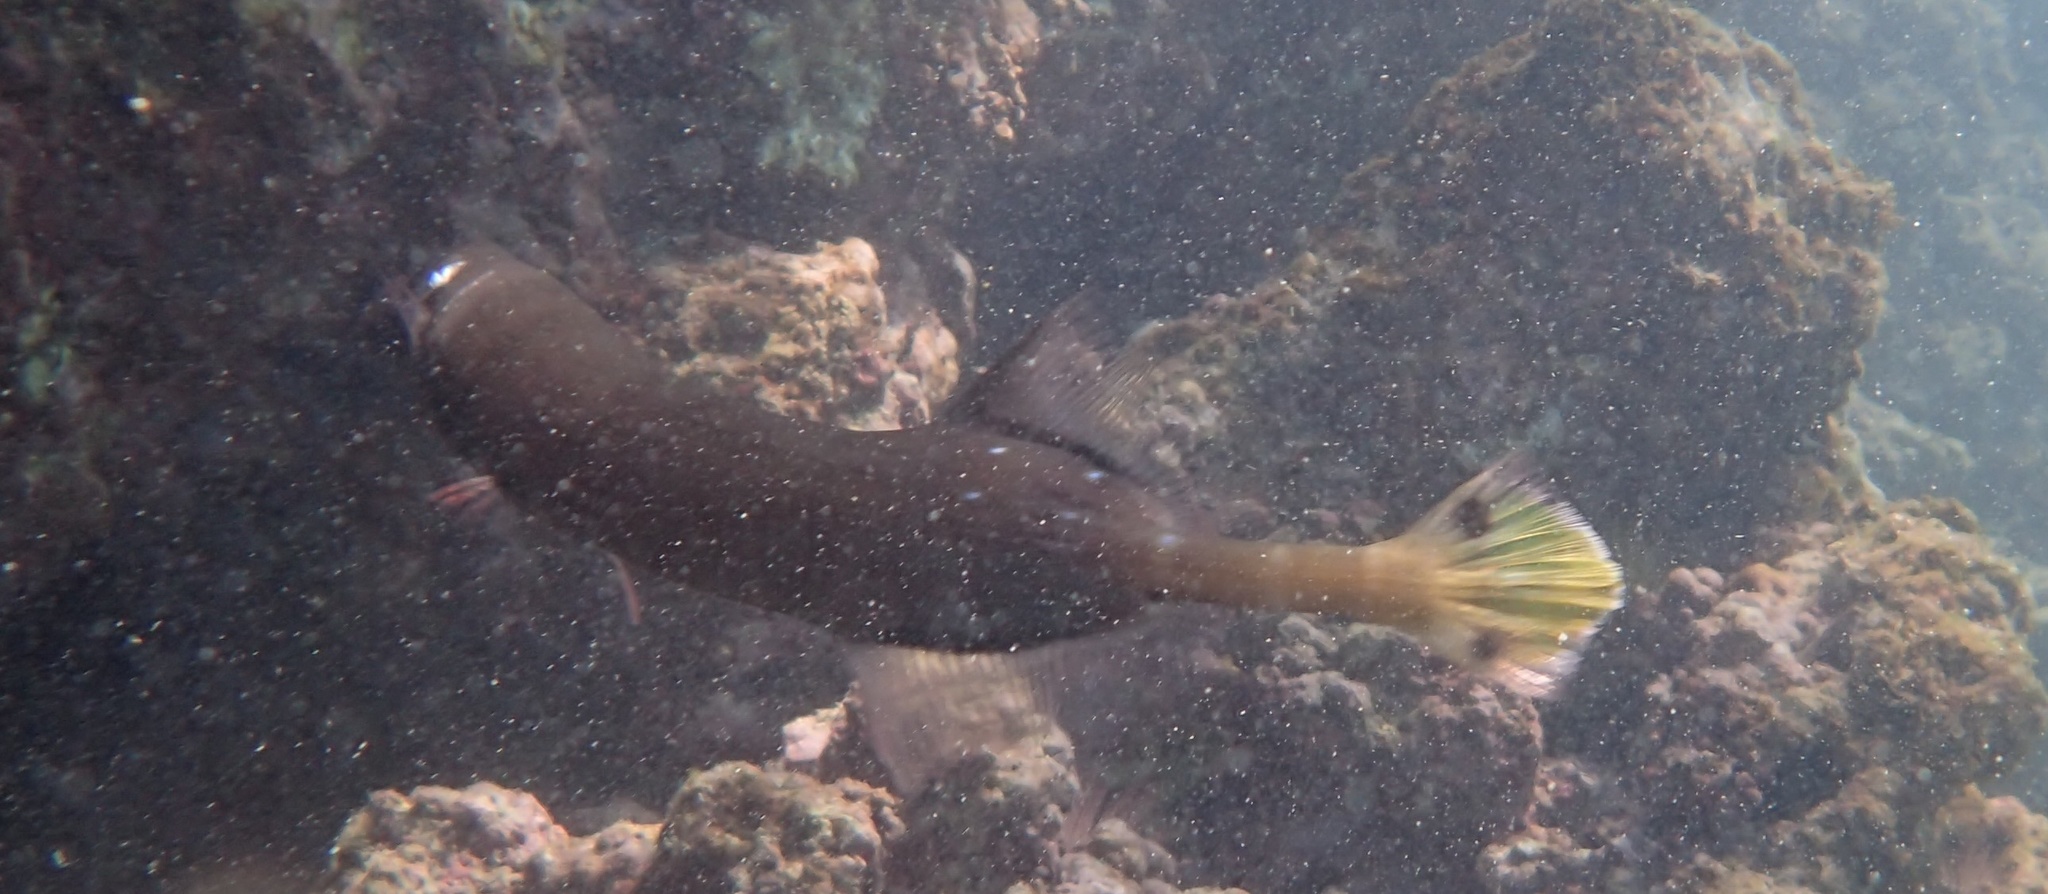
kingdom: Animalia
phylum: Chordata
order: Syngnathiformes
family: Aulostomidae
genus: Aulostomus
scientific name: Aulostomus chinensis
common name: Chinese trumpetfish
